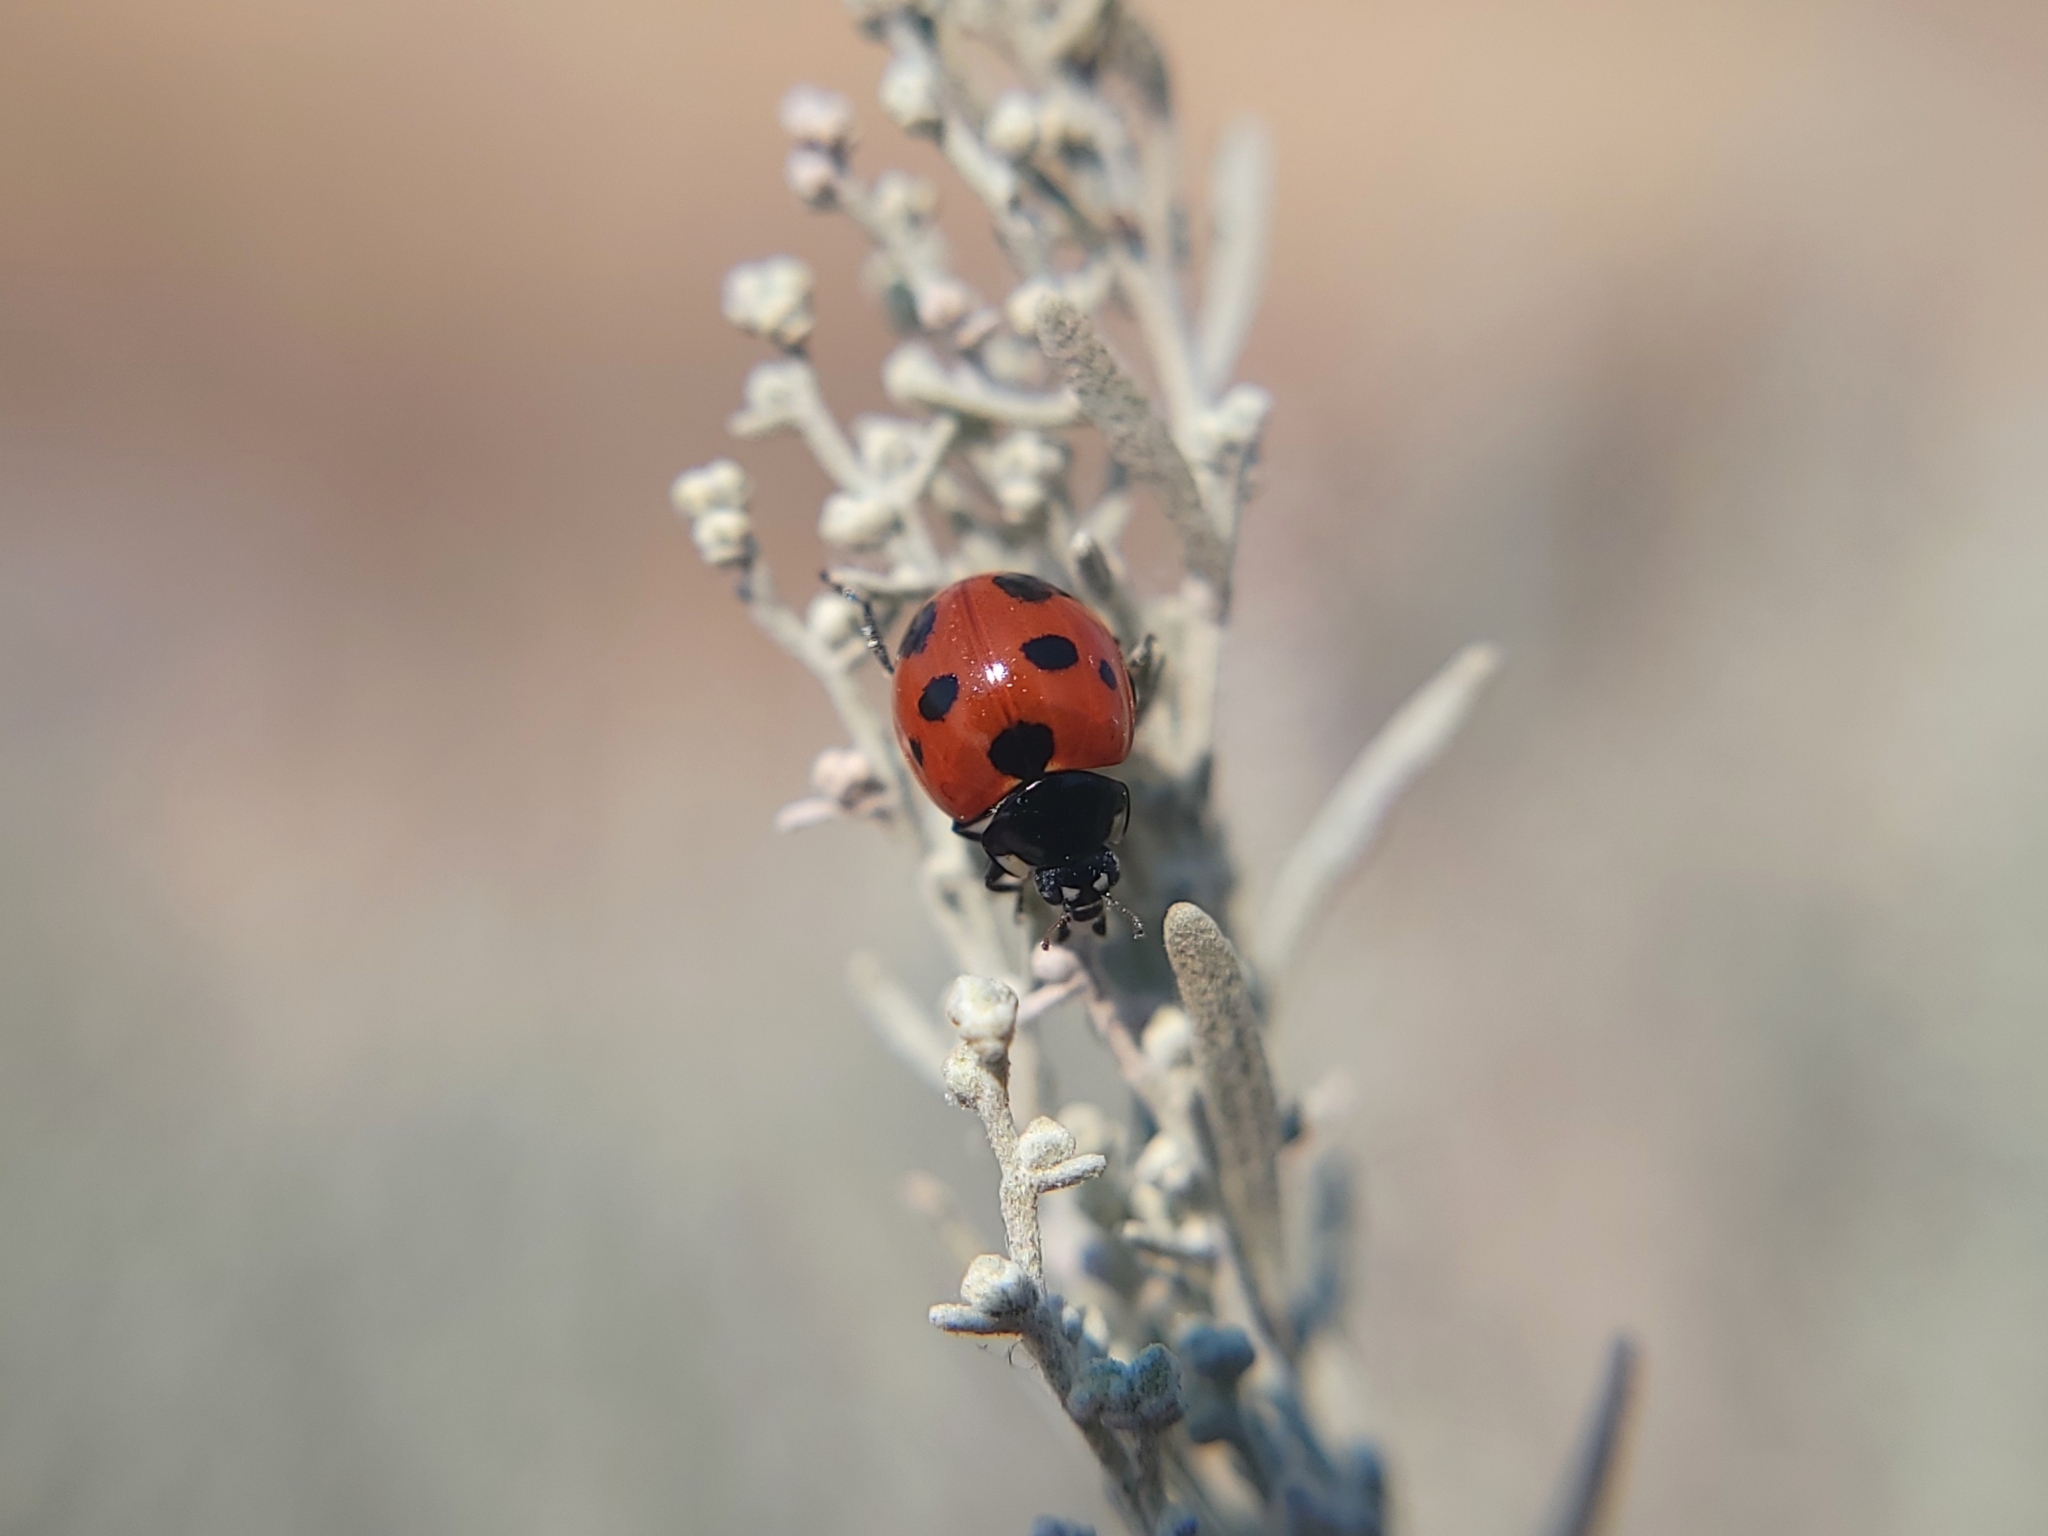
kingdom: Animalia
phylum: Arthropoda
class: Insecta
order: Coleoptera
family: Coccinellidae
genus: Coccinella
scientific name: Coccinella septempunctata
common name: Sevenspotted lady beetle
